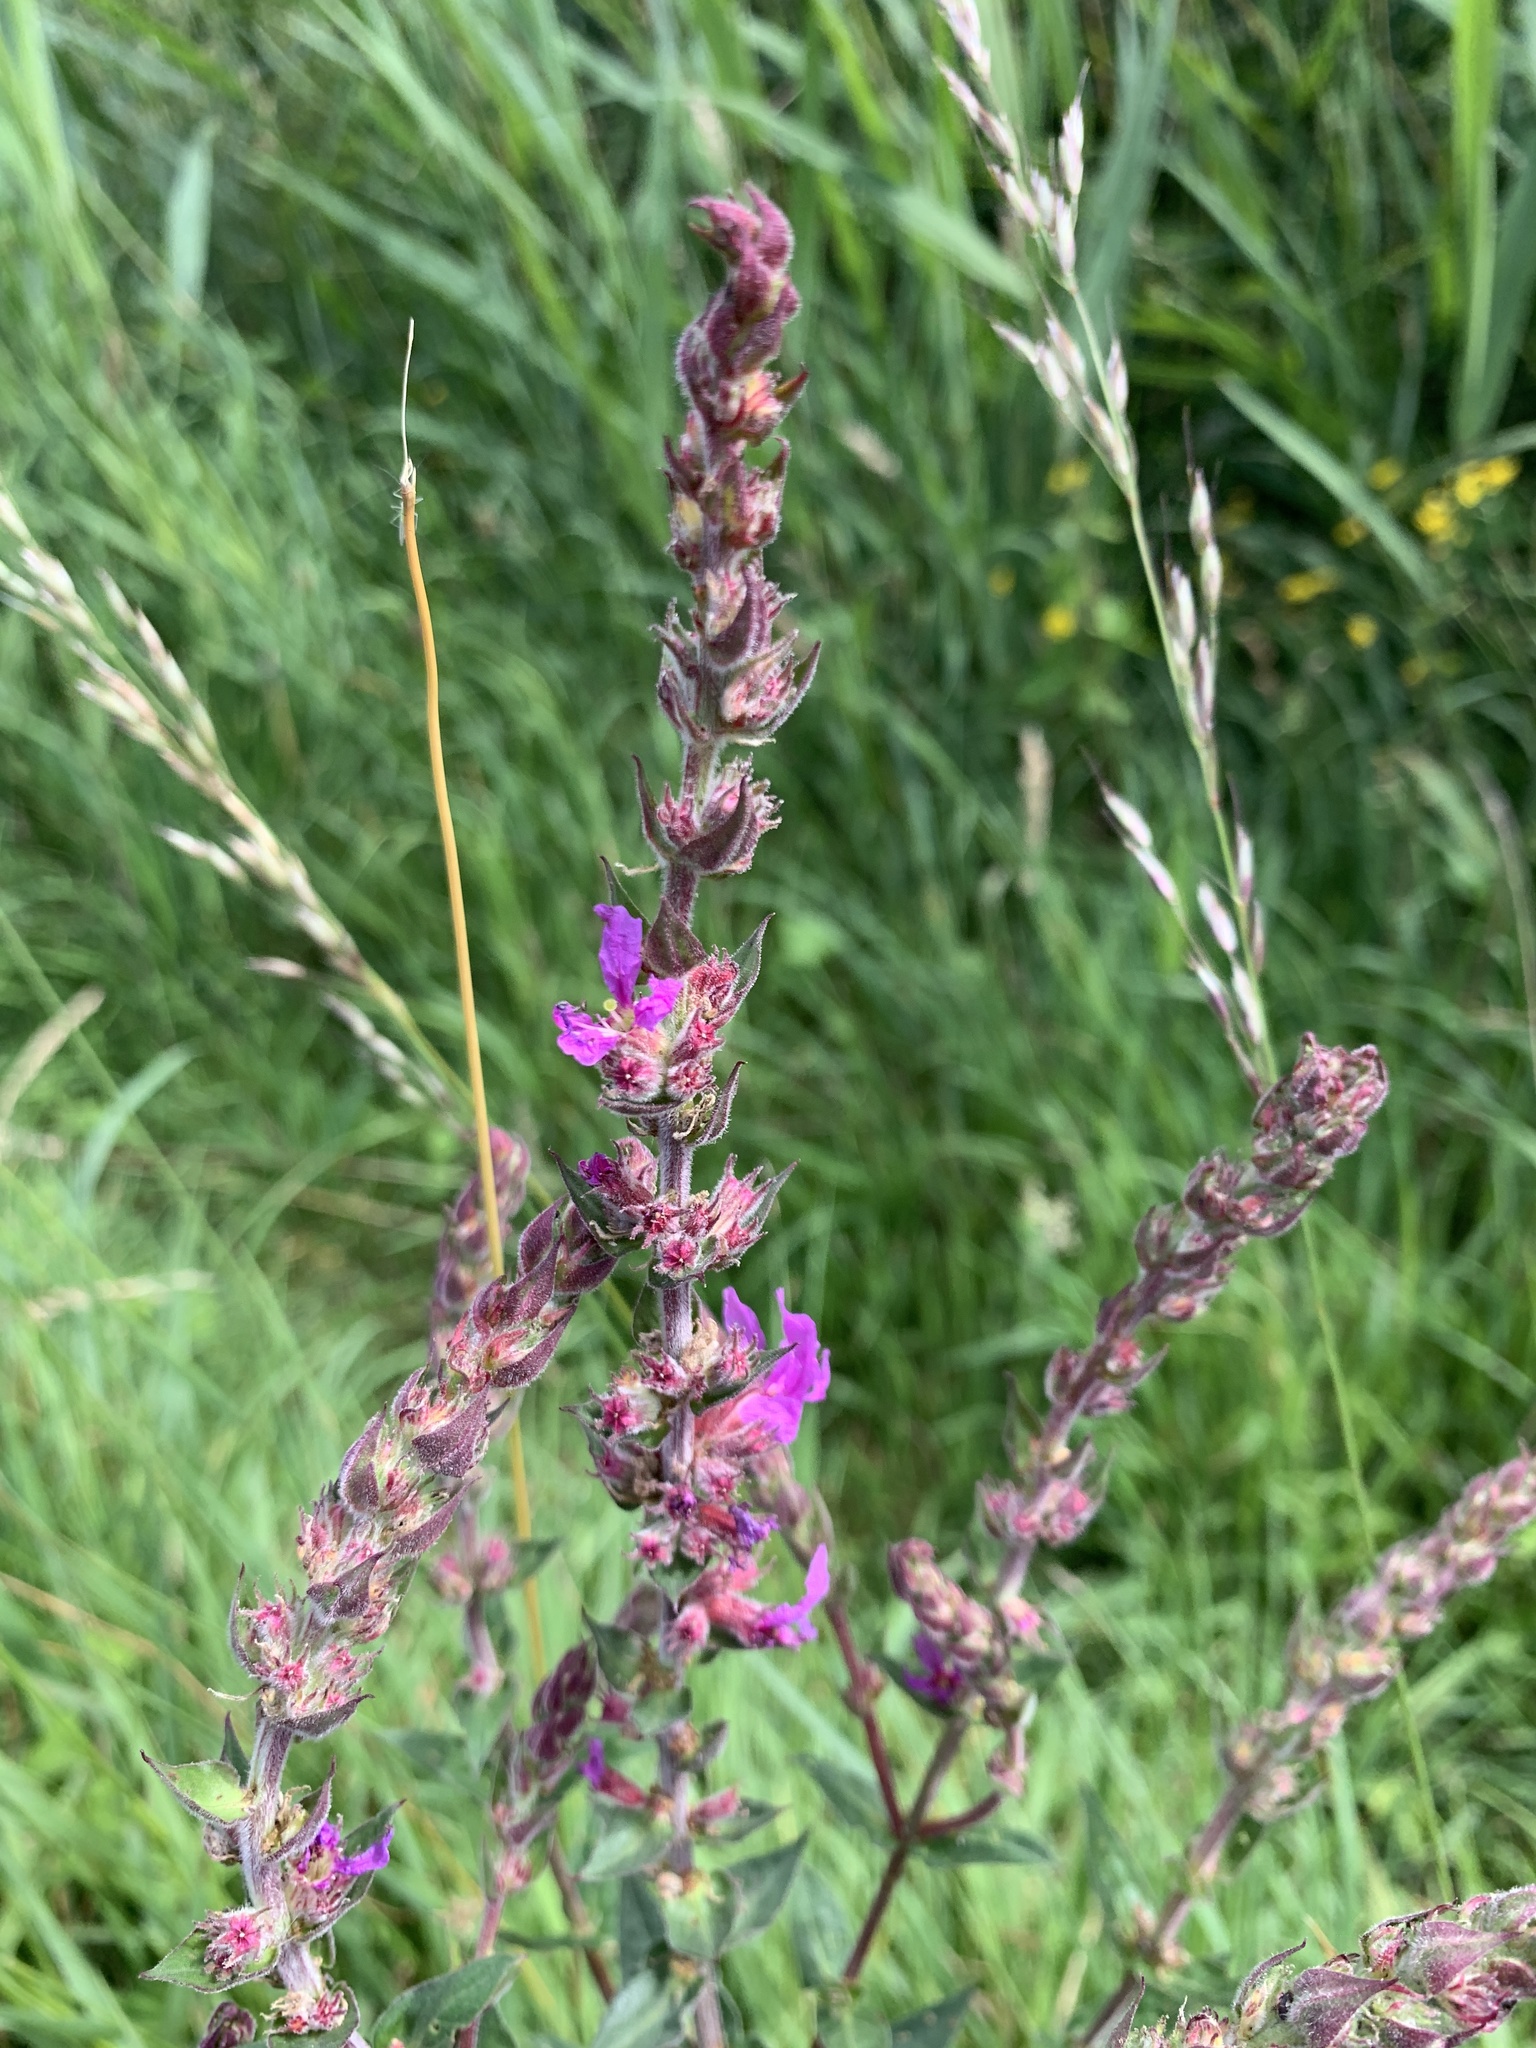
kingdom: Plantae
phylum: Tracheophyta
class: Magnoliopsida
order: Myrtales
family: Lythraceae
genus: Lythrum
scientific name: Lythrum salicaria
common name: Purple loosestrife
